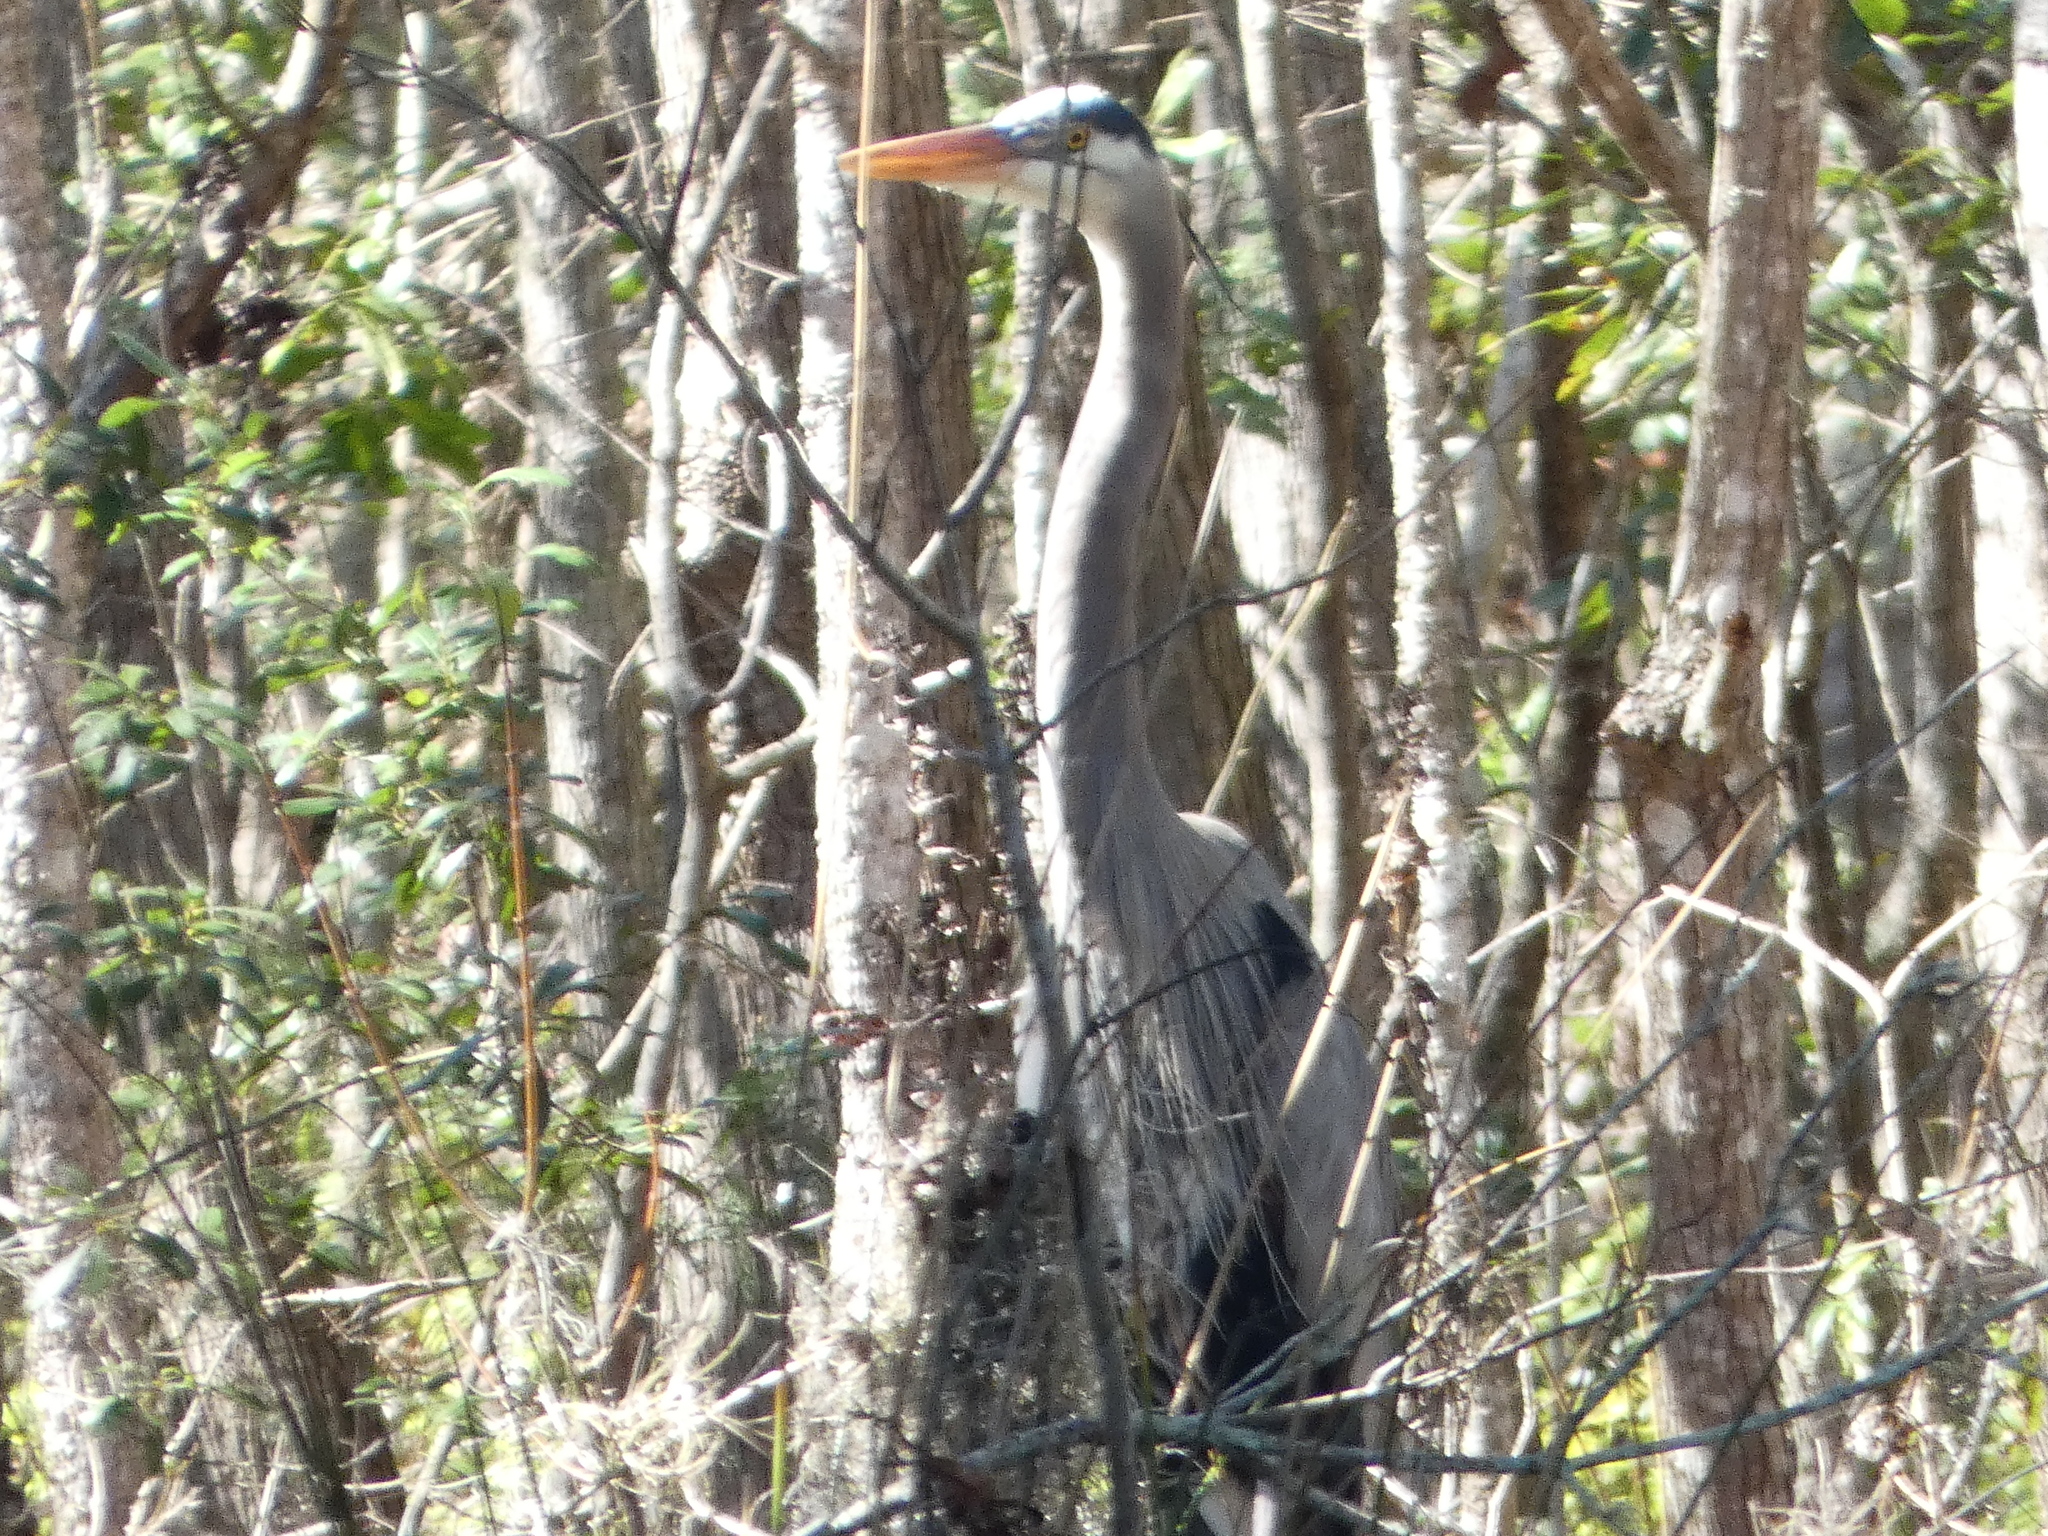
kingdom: Animalia
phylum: Chordata
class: Aves
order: Pelecaniformes
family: Ardeidae
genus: Ardea
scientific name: Ardea herodias
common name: Great blue heron
